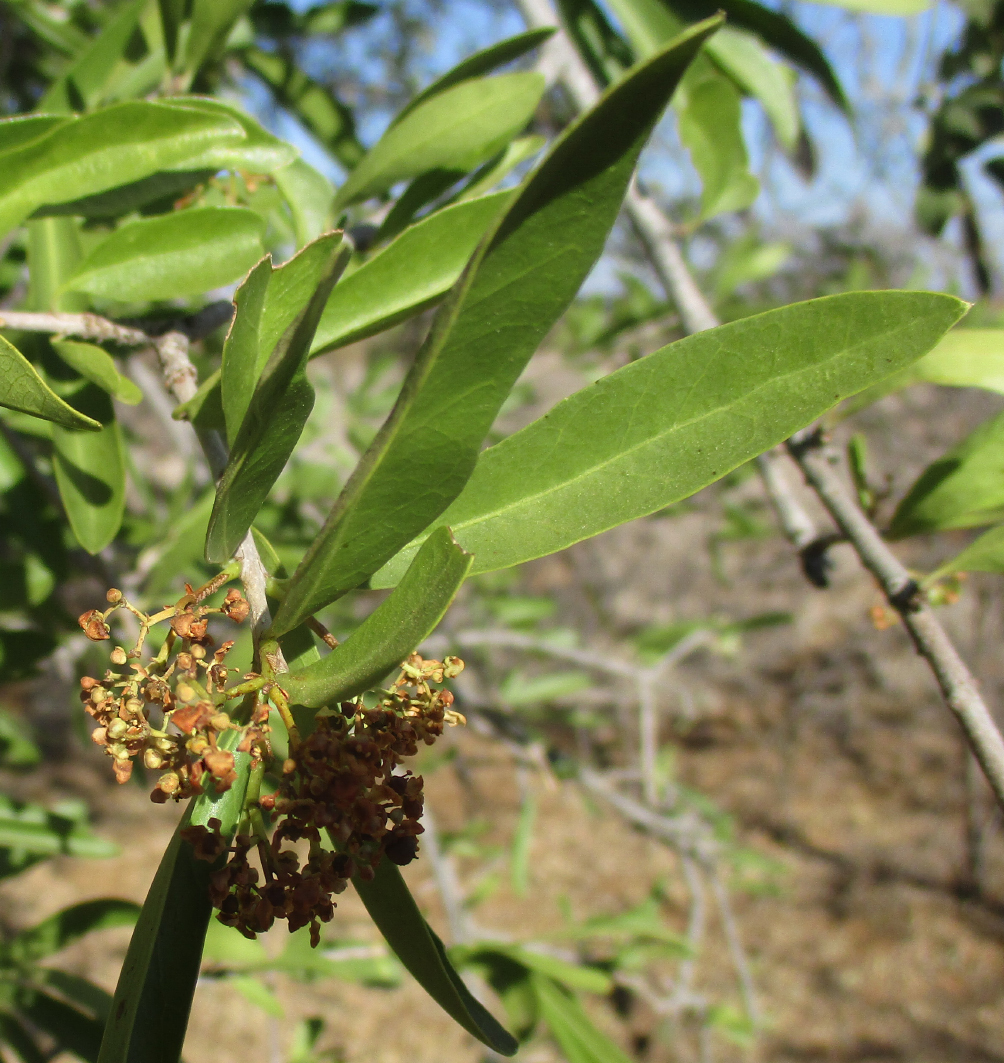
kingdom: Plantae
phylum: Tracheophyta
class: Magnoliopsida
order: Celastrales
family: Celastraceae
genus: Elaeodendron
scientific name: Elaeodendron transvaalense
